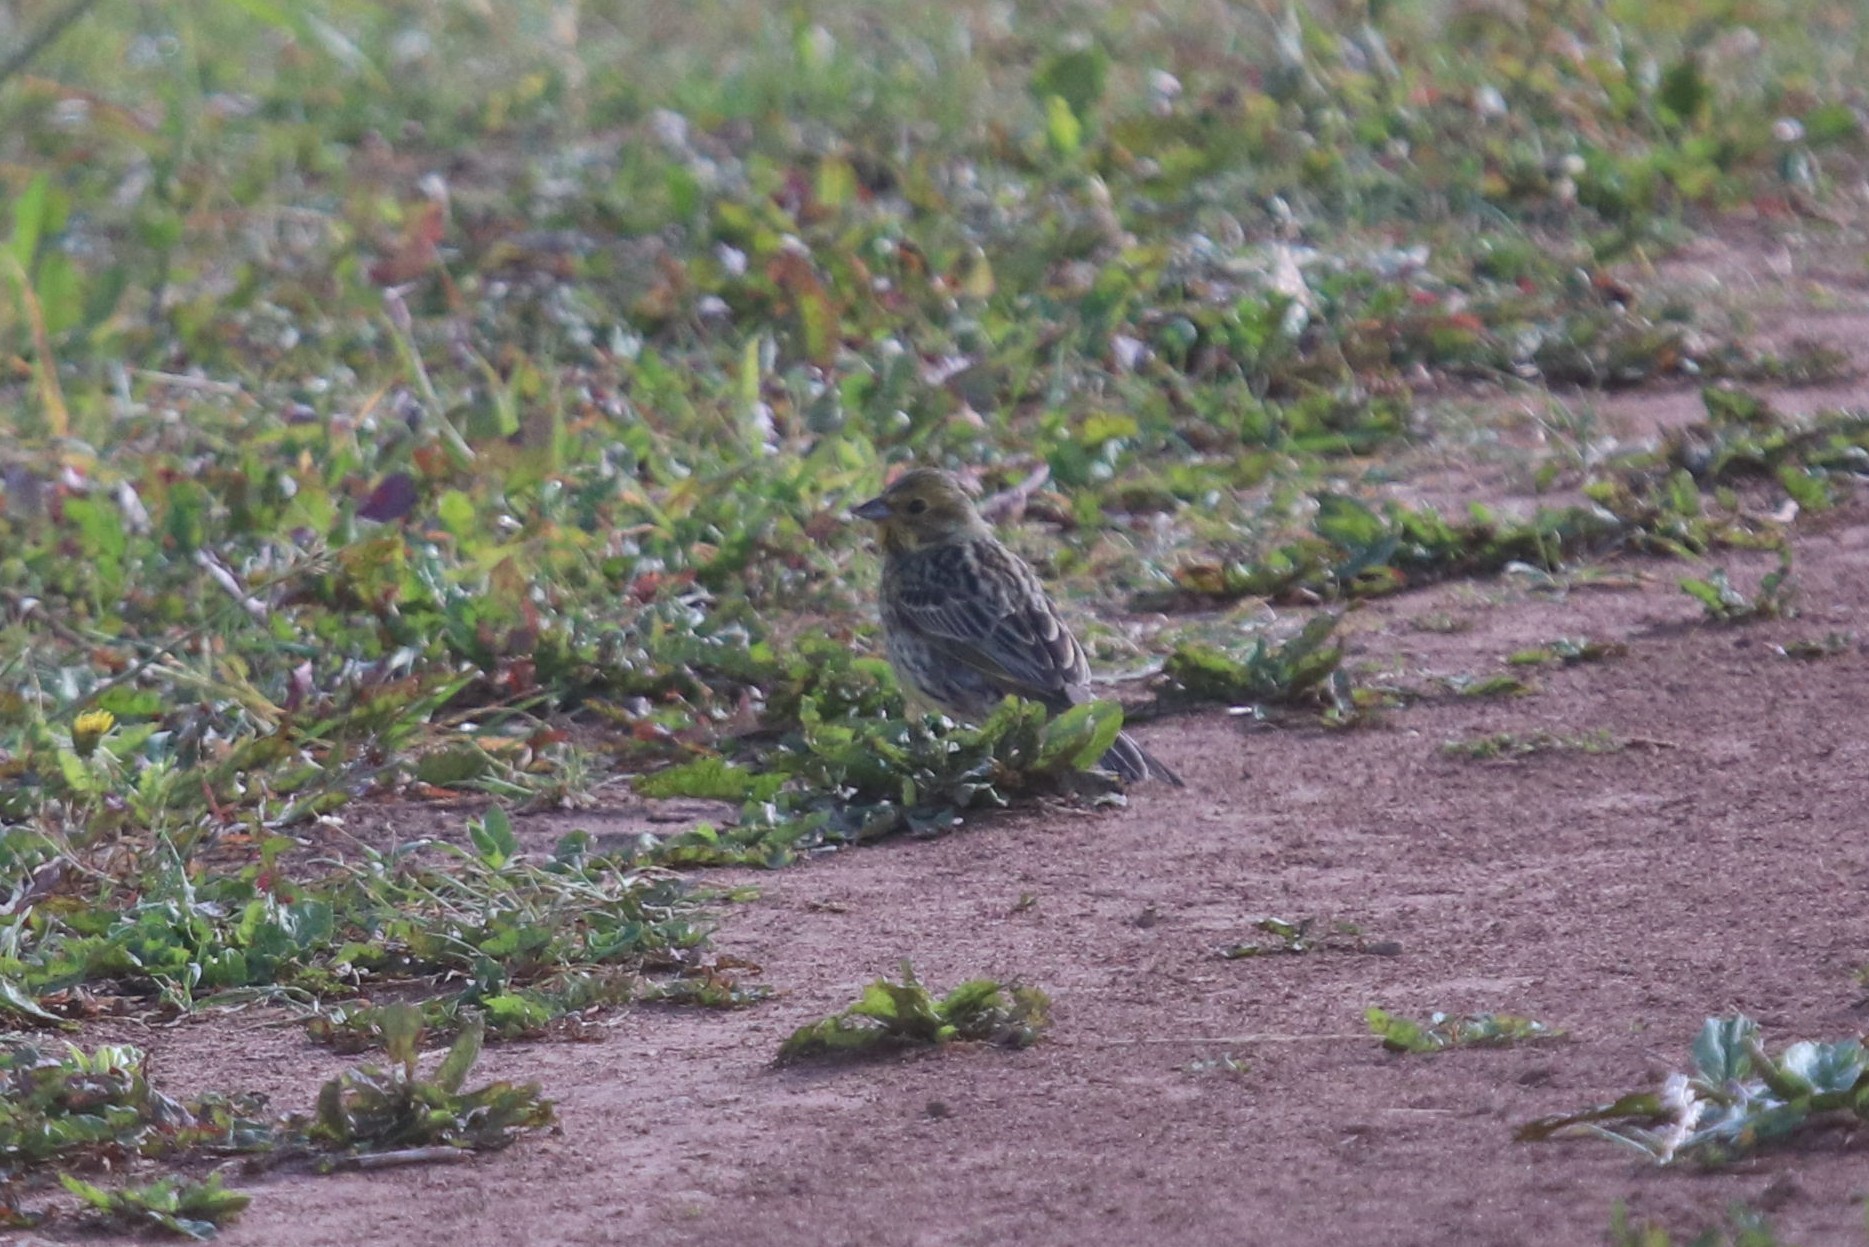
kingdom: Animalia
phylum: Chordata
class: Aves
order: Passeriformes
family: Emberizidae
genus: Emberiza
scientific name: Emberiza citrinella
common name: Yellowhammer
